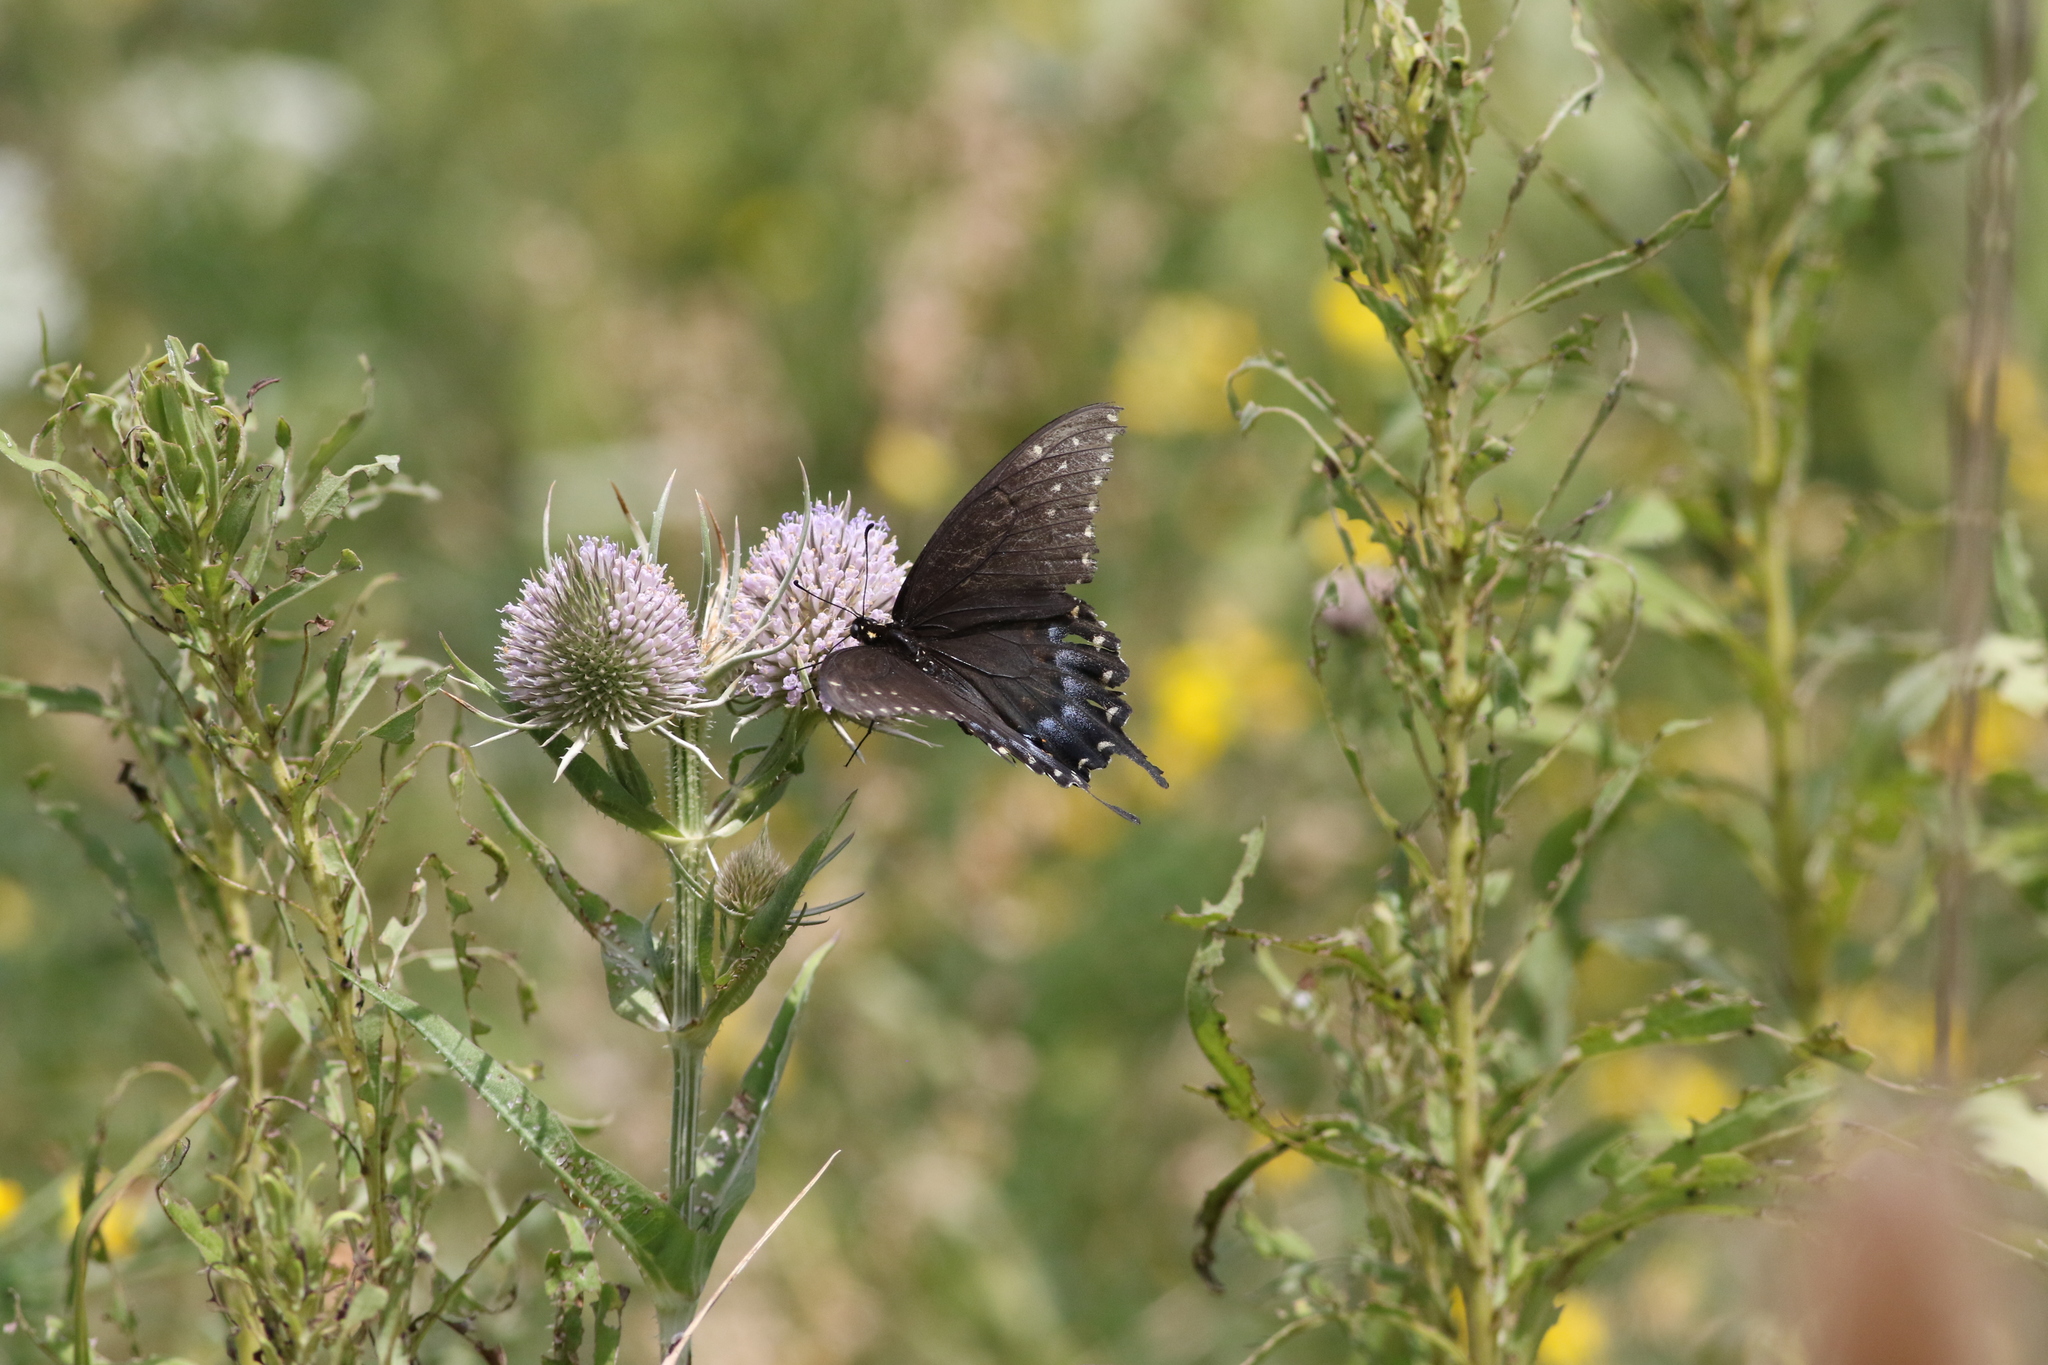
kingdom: Animalia
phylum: Arthropoda
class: Insecta
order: Lepidoptera
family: Papilionidae
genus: Papilio
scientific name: Papilio polyxenes
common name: Black swallowtail
